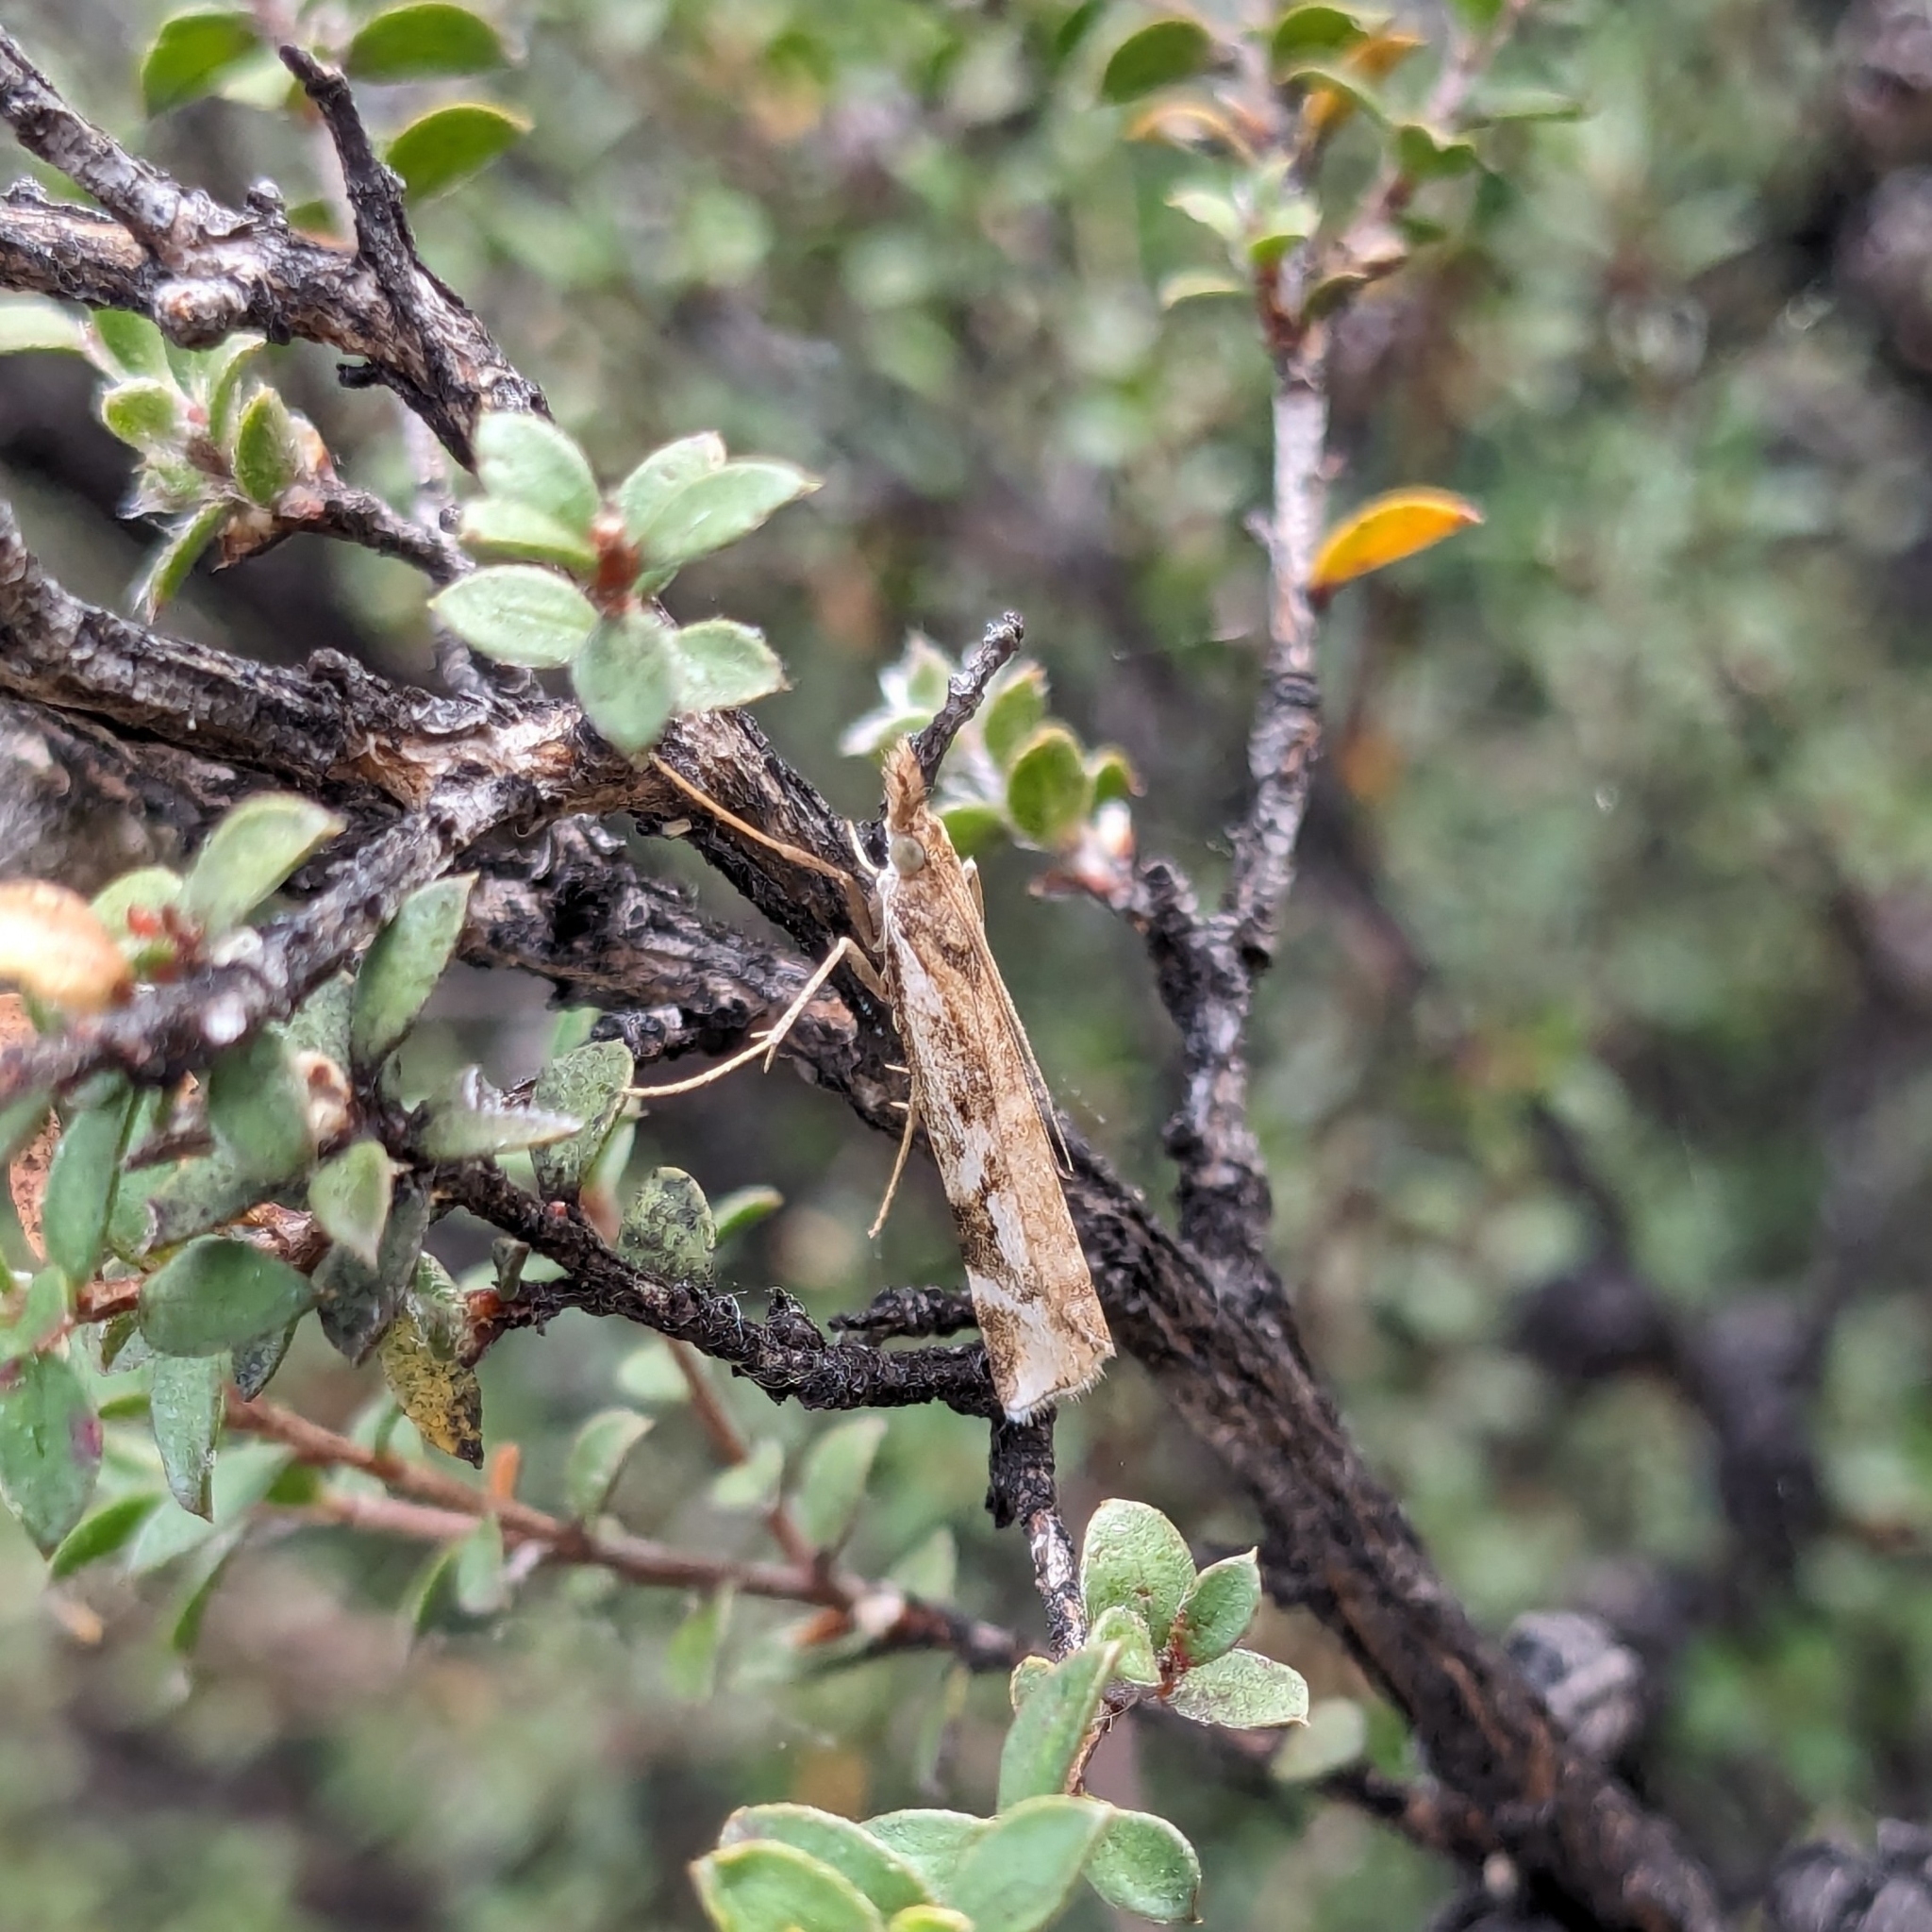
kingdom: Animalia
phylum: Arthropoda
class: Insecta
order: Lepidoptera
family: Crambidae
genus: Orocrambus
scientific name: Orocrambus vulgaris
